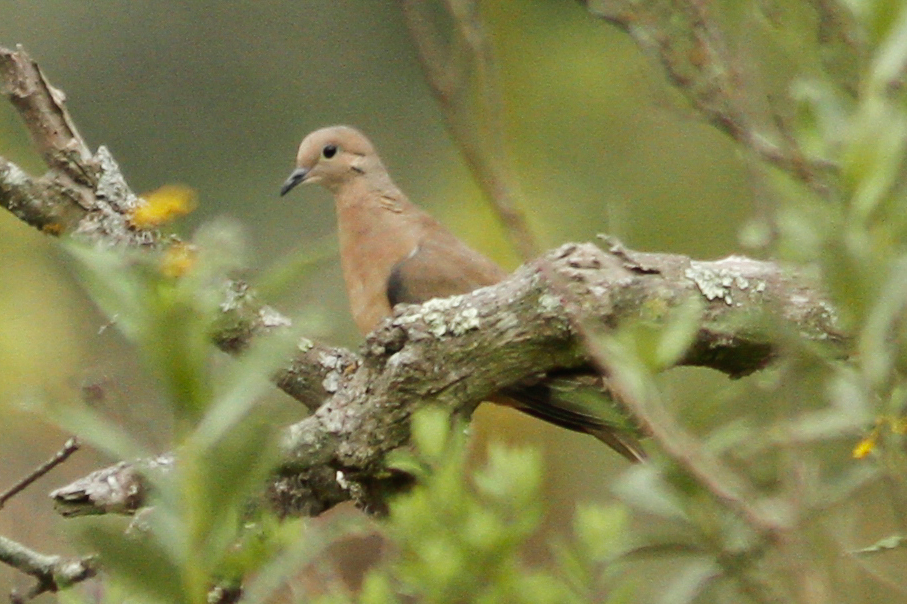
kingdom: Animalia
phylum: Chordata
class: Aves
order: Columbiformes
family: Columbidae
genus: Zenaida
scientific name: Zenaida auriculata
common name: Eared dove
